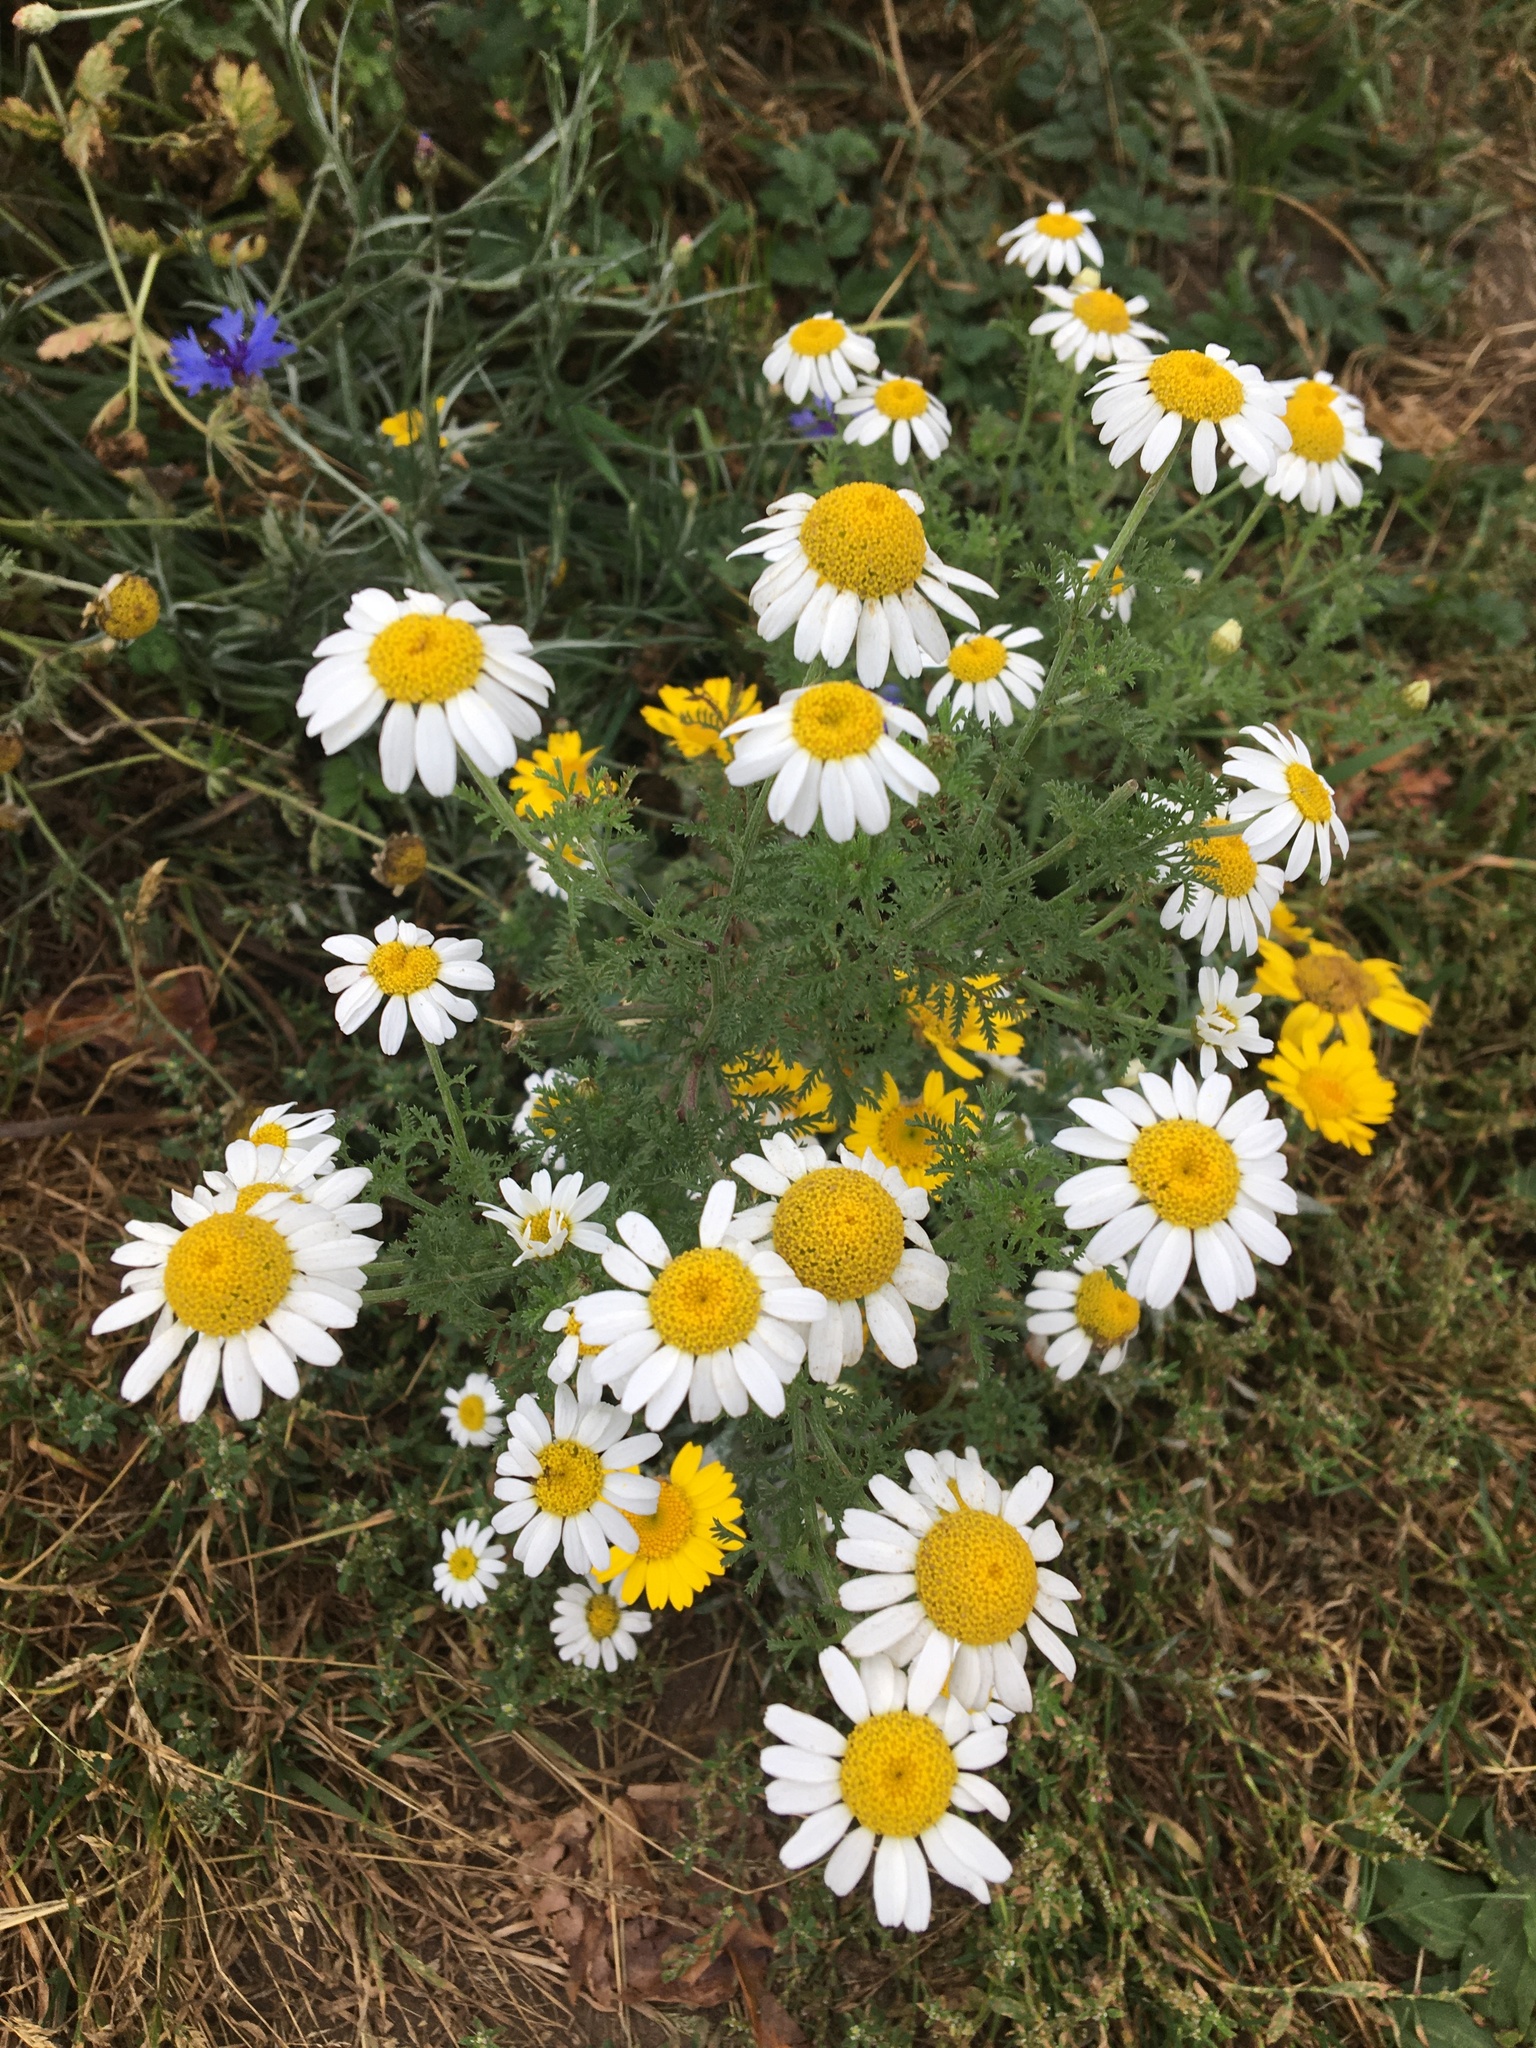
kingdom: Plantae
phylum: Tracheophyta
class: Magnoliopsida
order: Asterales
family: Asteraceae
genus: Cota
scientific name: Cota austriaca
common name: Austrian chamomile
